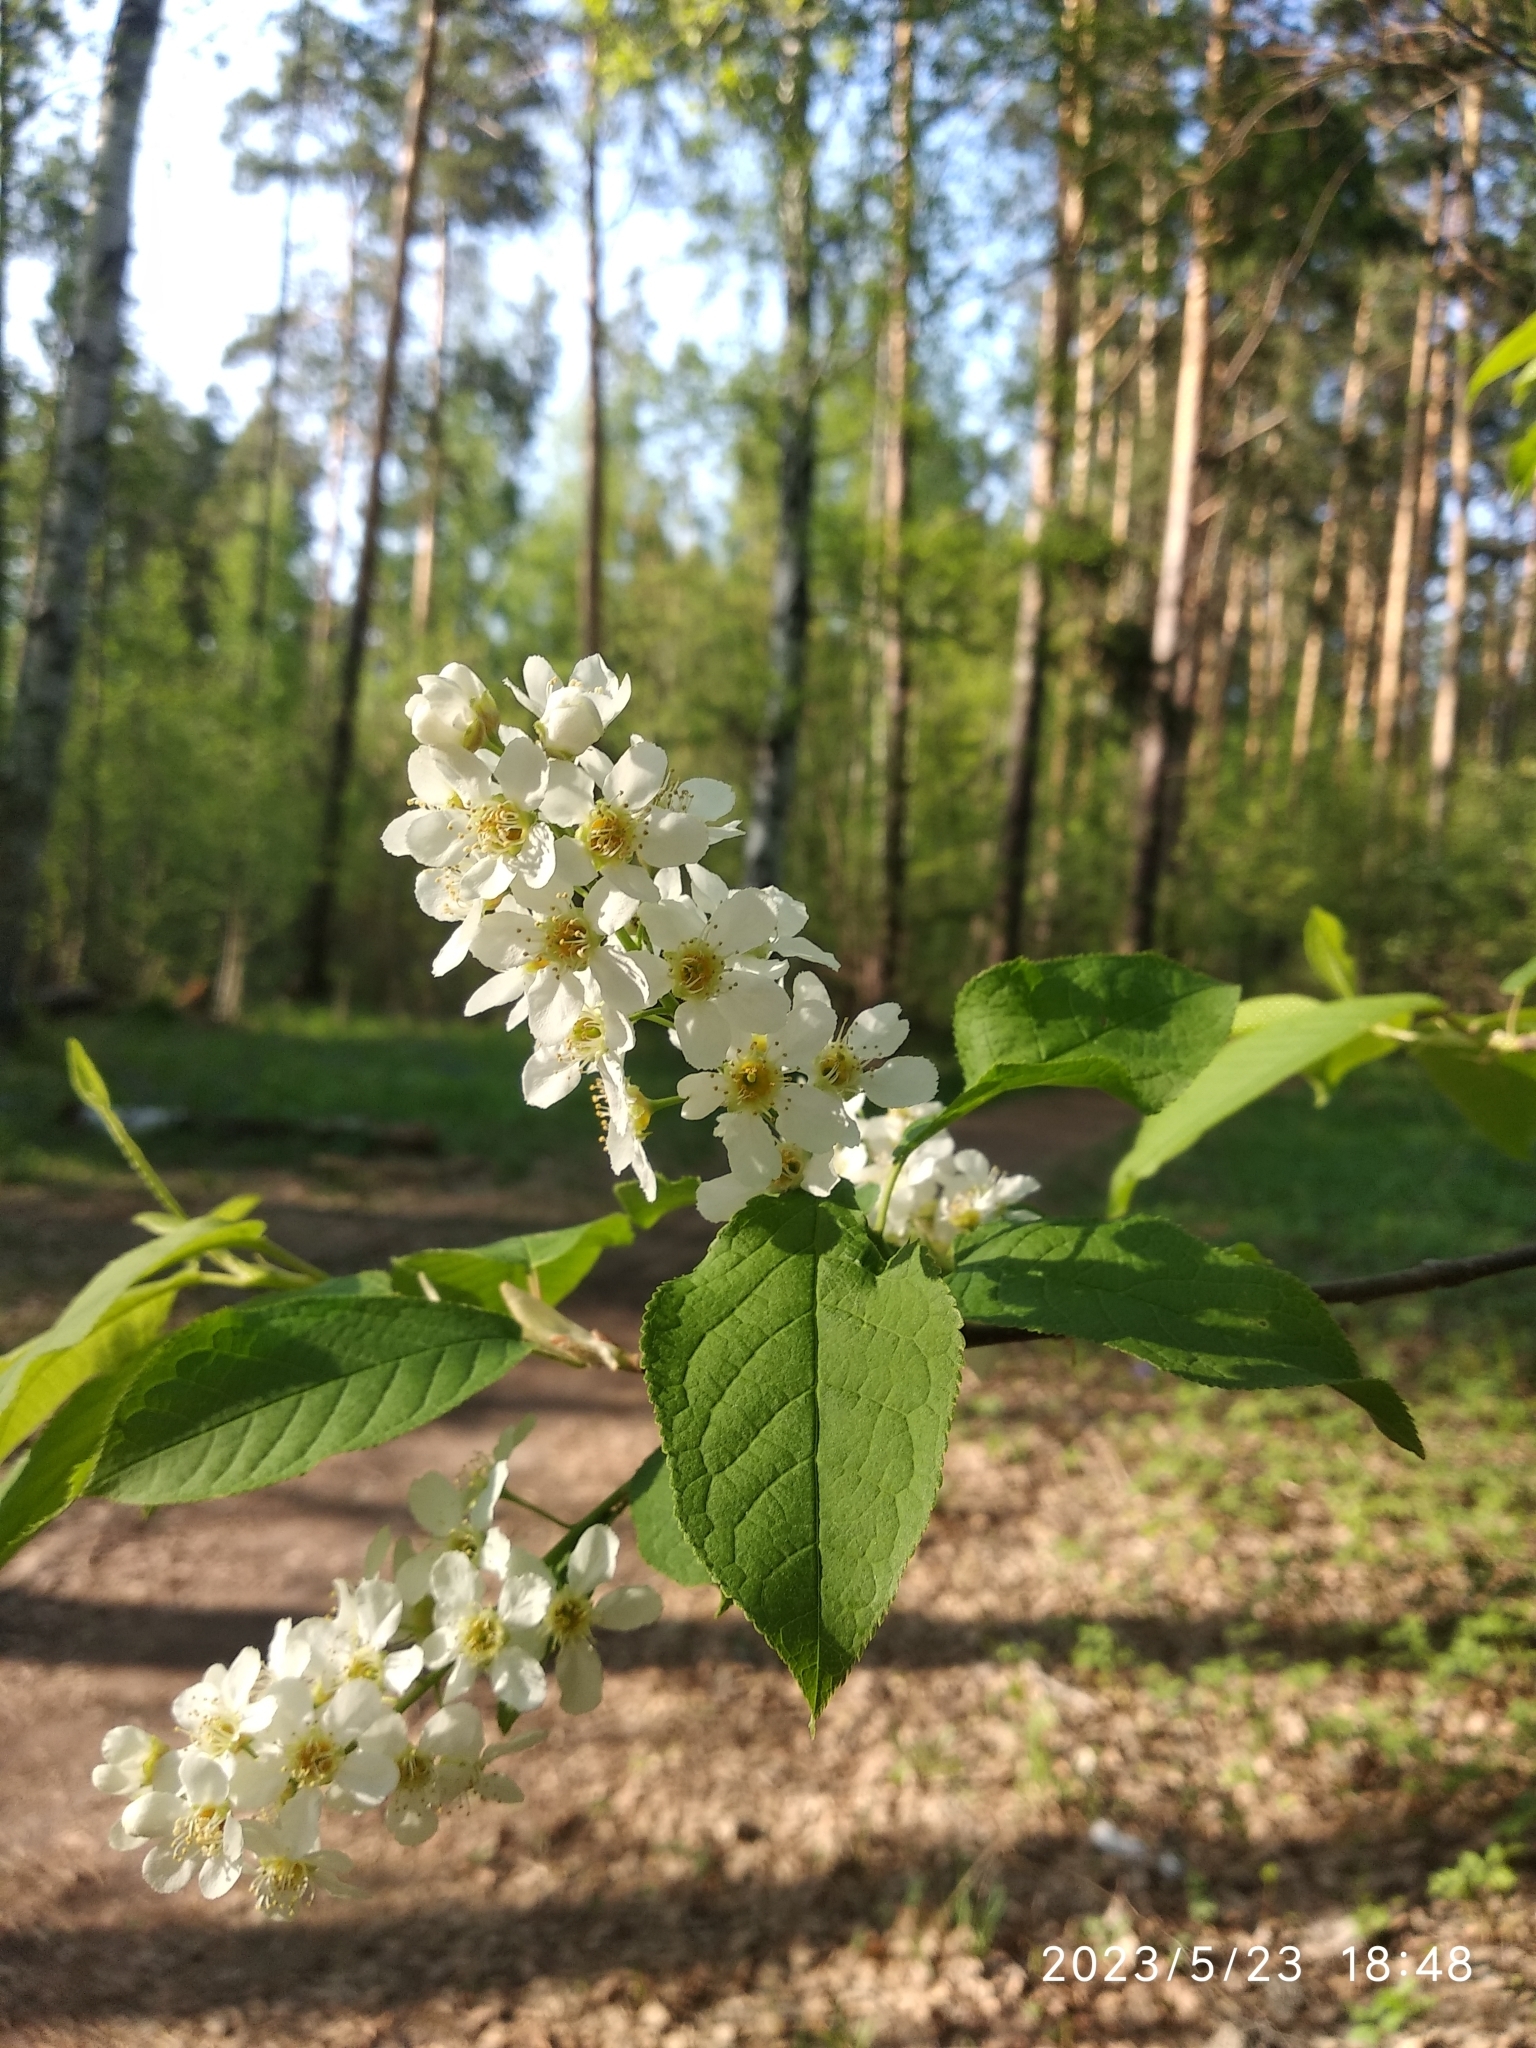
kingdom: Plantae
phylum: Tracheophyta
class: Magnoliopsida
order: Rosales
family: Rosaceae
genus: Prunus
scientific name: Prunus padus
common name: Bird cherry
